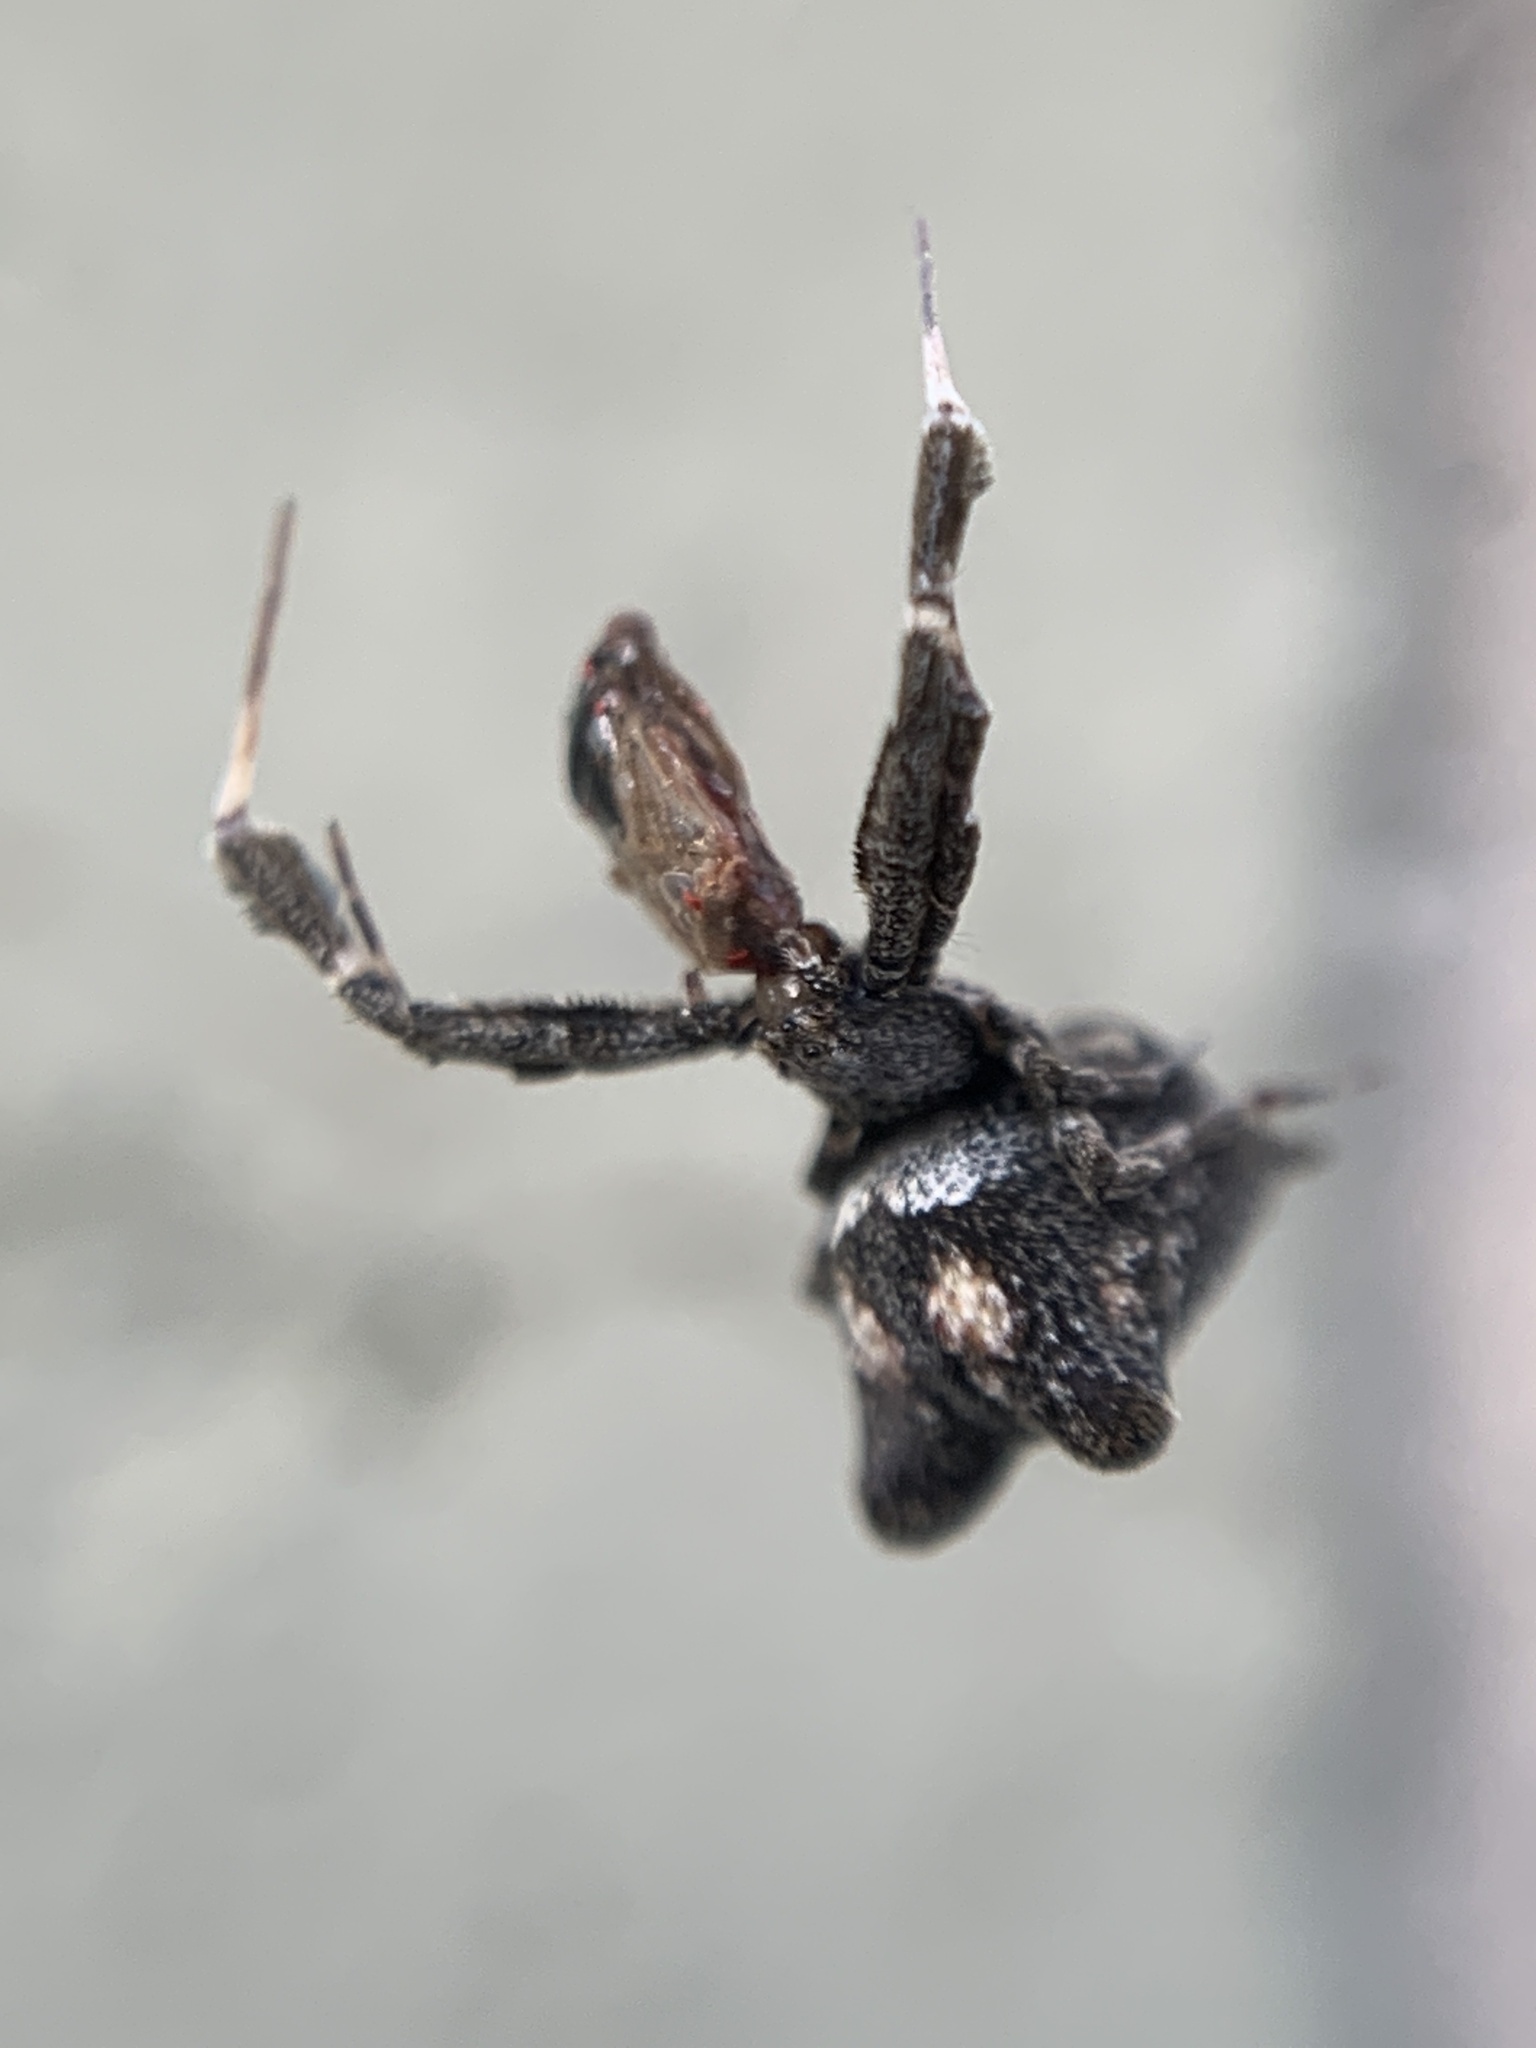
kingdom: Animalia
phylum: Arthropoda
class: Arachnida
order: Araneae
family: Uloboridae
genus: Uloborus
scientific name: Uloborus plumipes
